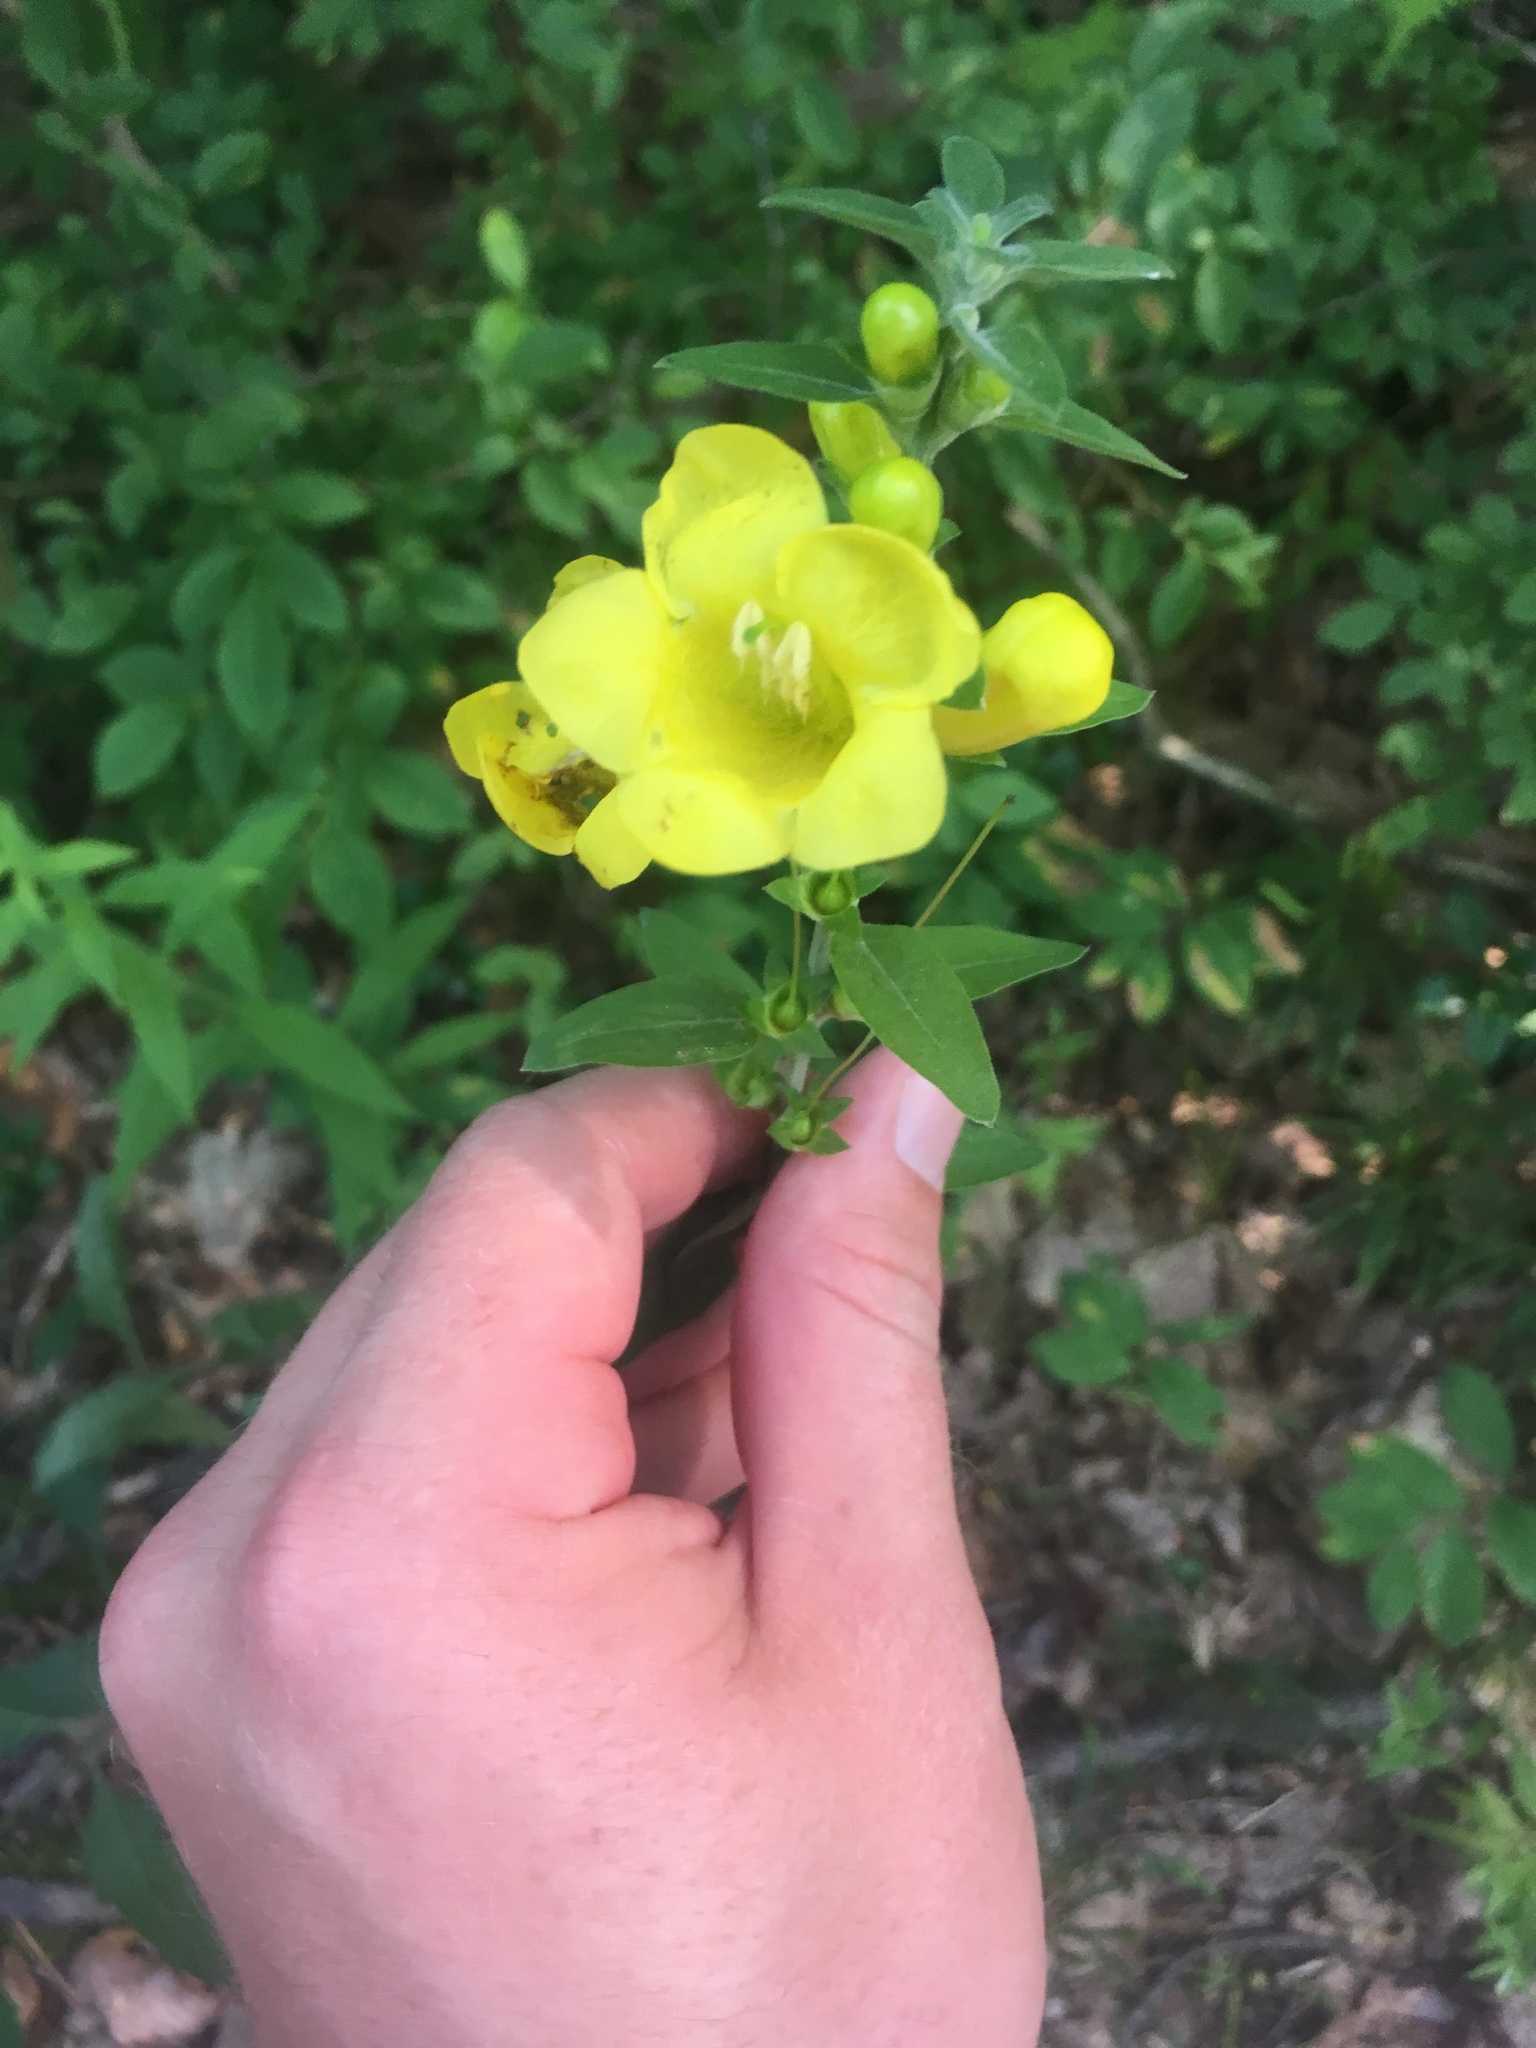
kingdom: Plantae
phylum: Tracheophyta
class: Magnoliopsida
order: Lamiales
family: Orobanchaceae
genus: Aureolaria
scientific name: Aureolaria virginica
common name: Downy false foxglove
